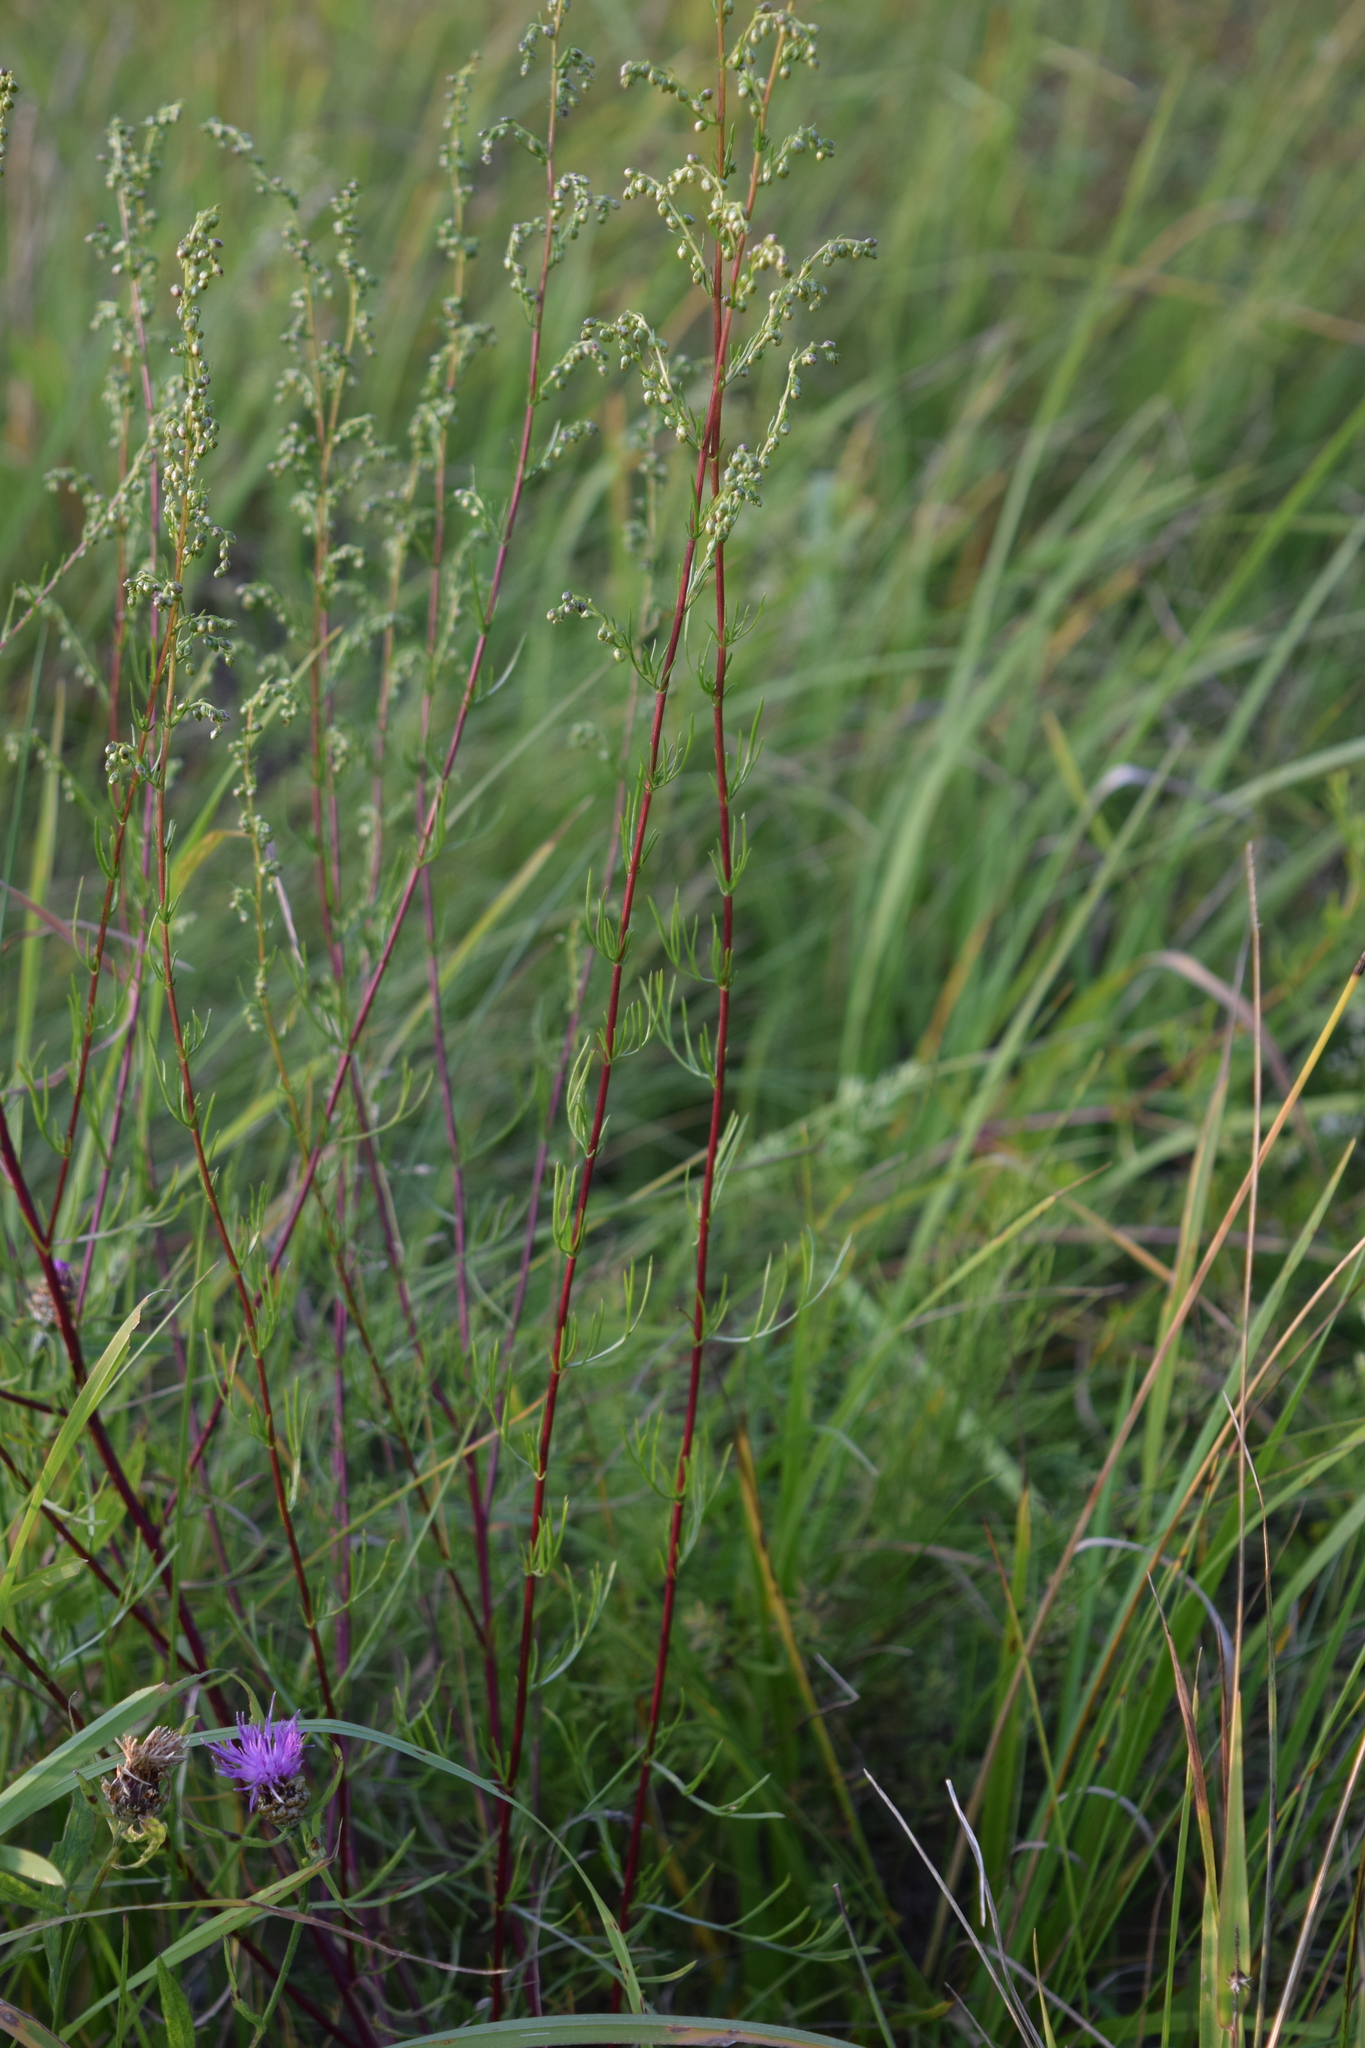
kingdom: Plantae
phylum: Tracheophyta
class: Magnoliopsida
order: Asterales
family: Asteraceae
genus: Artemisia
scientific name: Artemisia campestris
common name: Field wormwood
